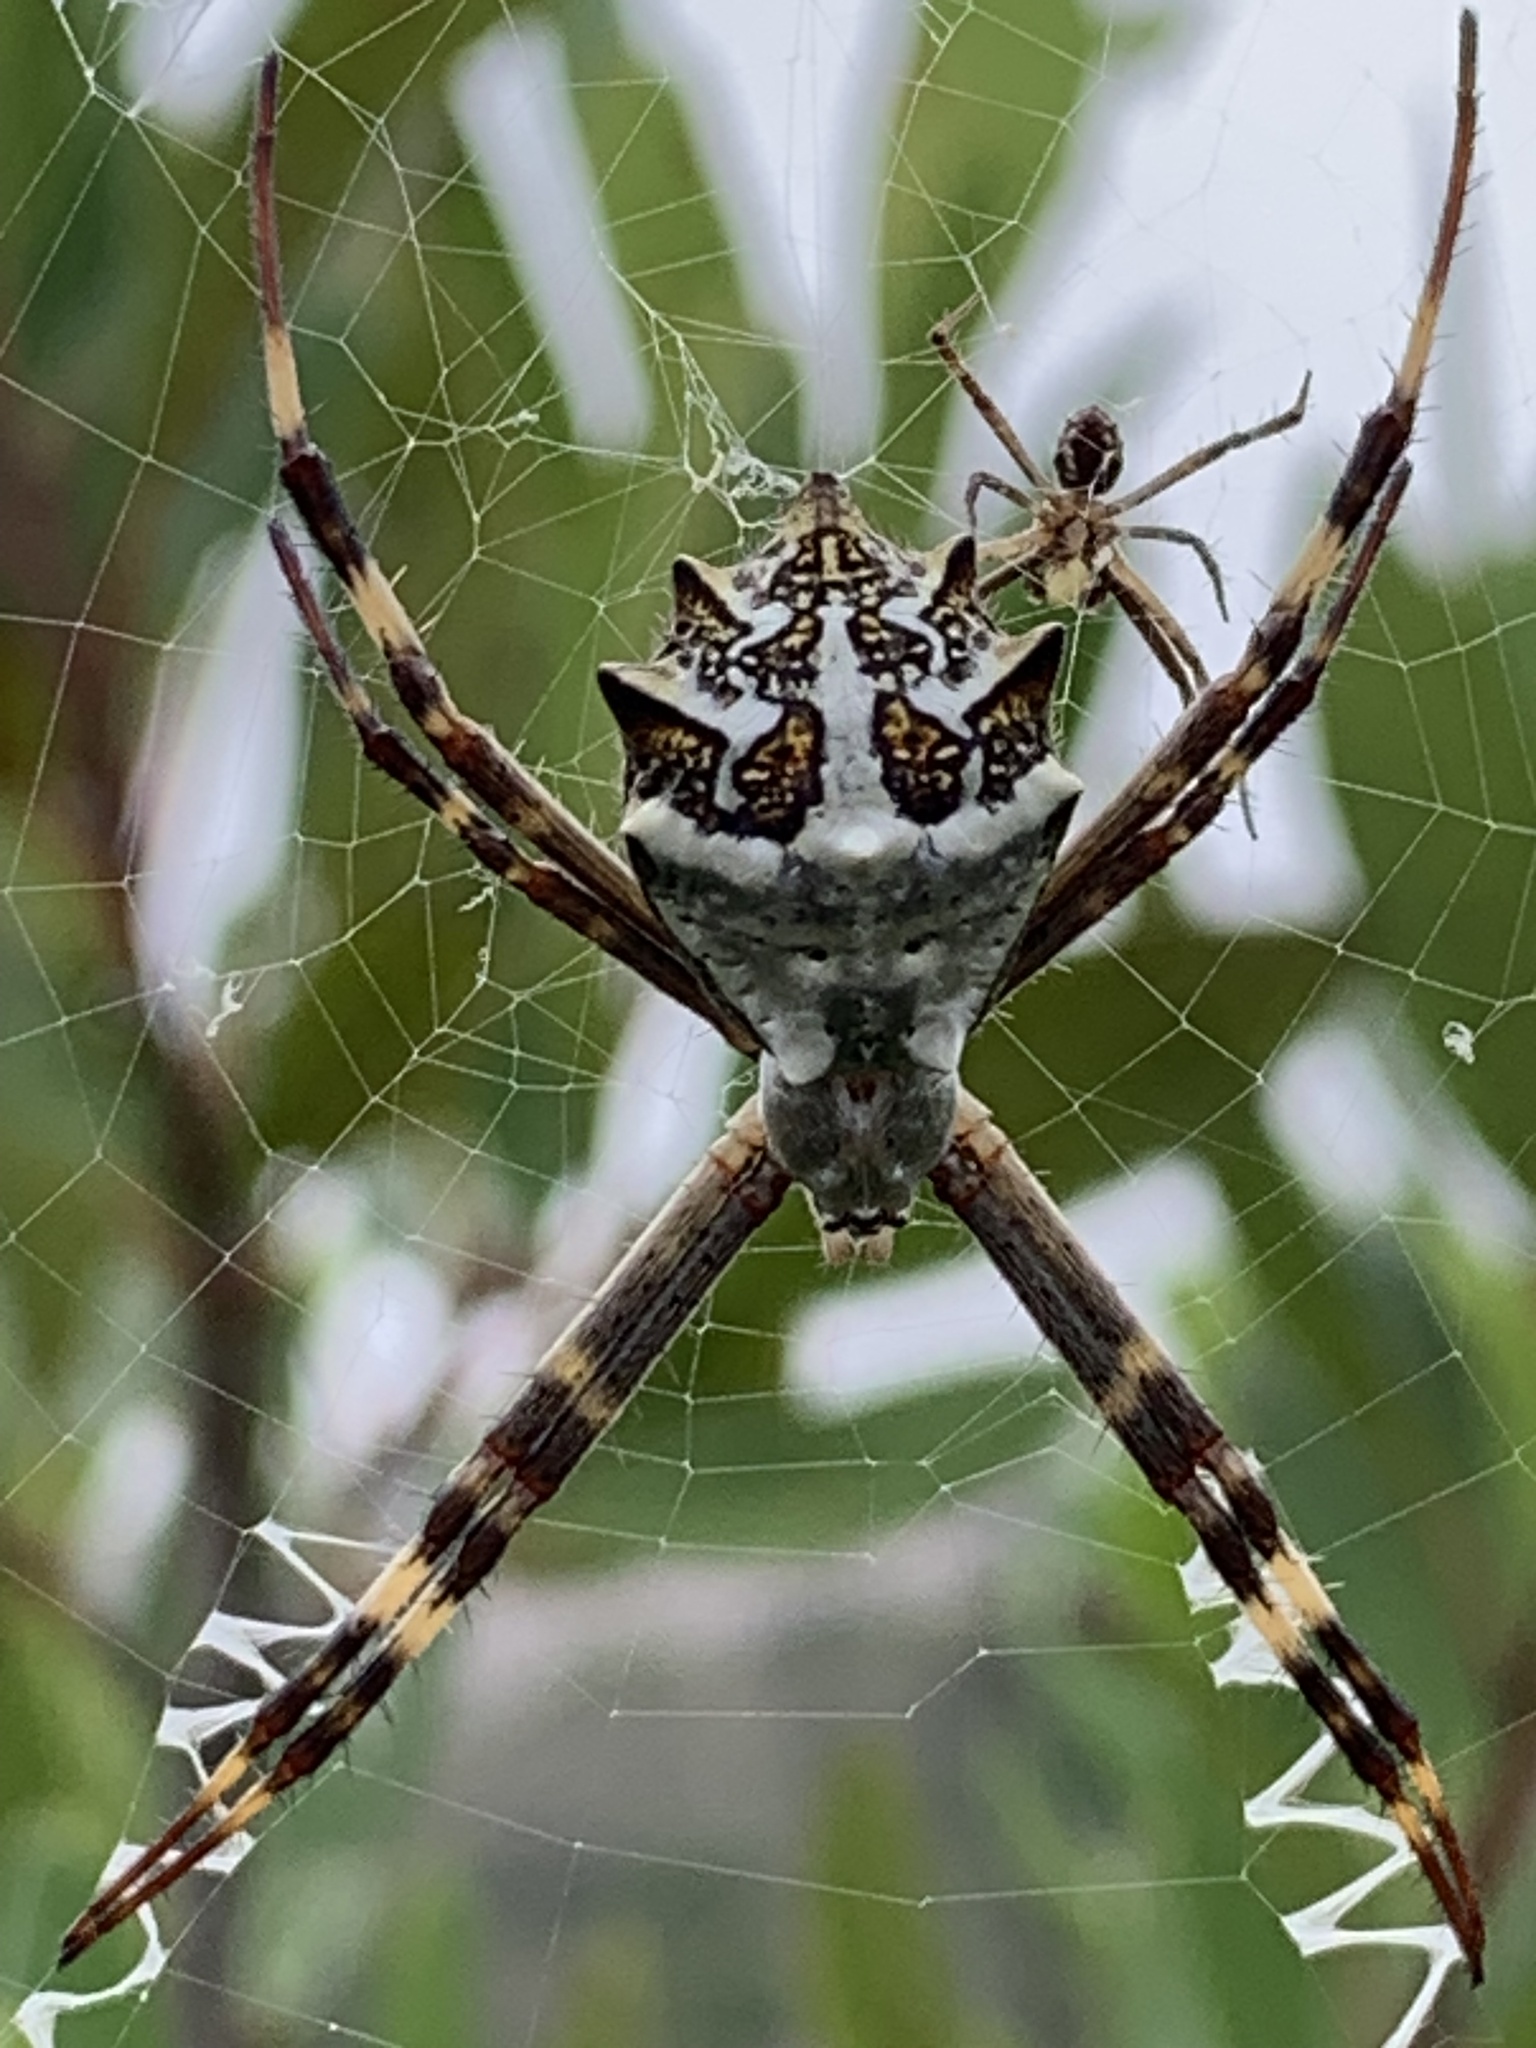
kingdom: Animalia
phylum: Arthropoda
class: Arachnida
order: Araneae
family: Araneidae
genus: Argiope
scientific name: Argiope argentata
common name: Orb weavers
